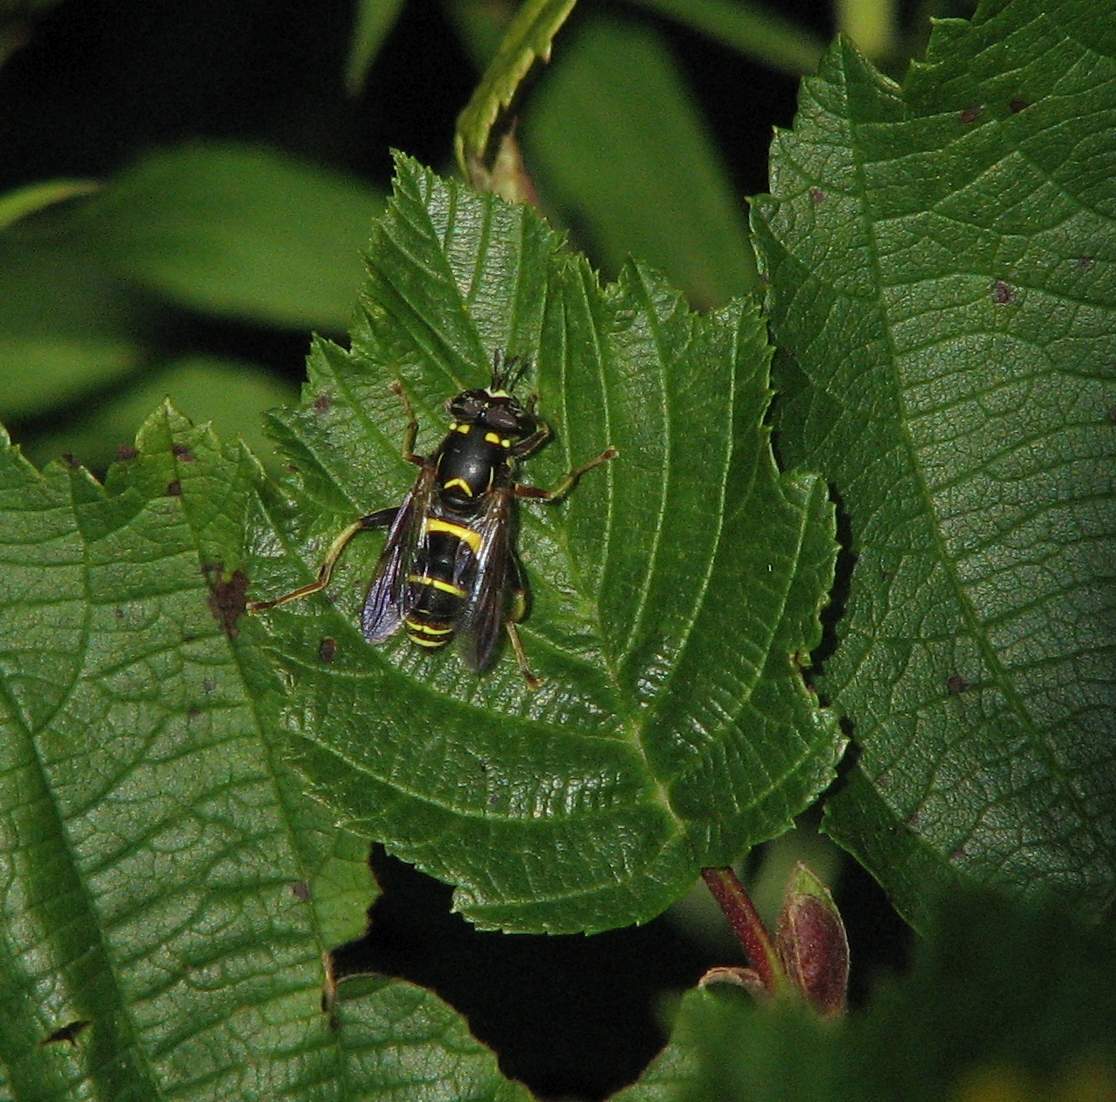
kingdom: Animalia
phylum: Arthropoda
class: Insecta
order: Diptera
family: Syrphidae
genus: Spilomyia
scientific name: Spilomyia sayi
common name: Four-lined hornet fly
